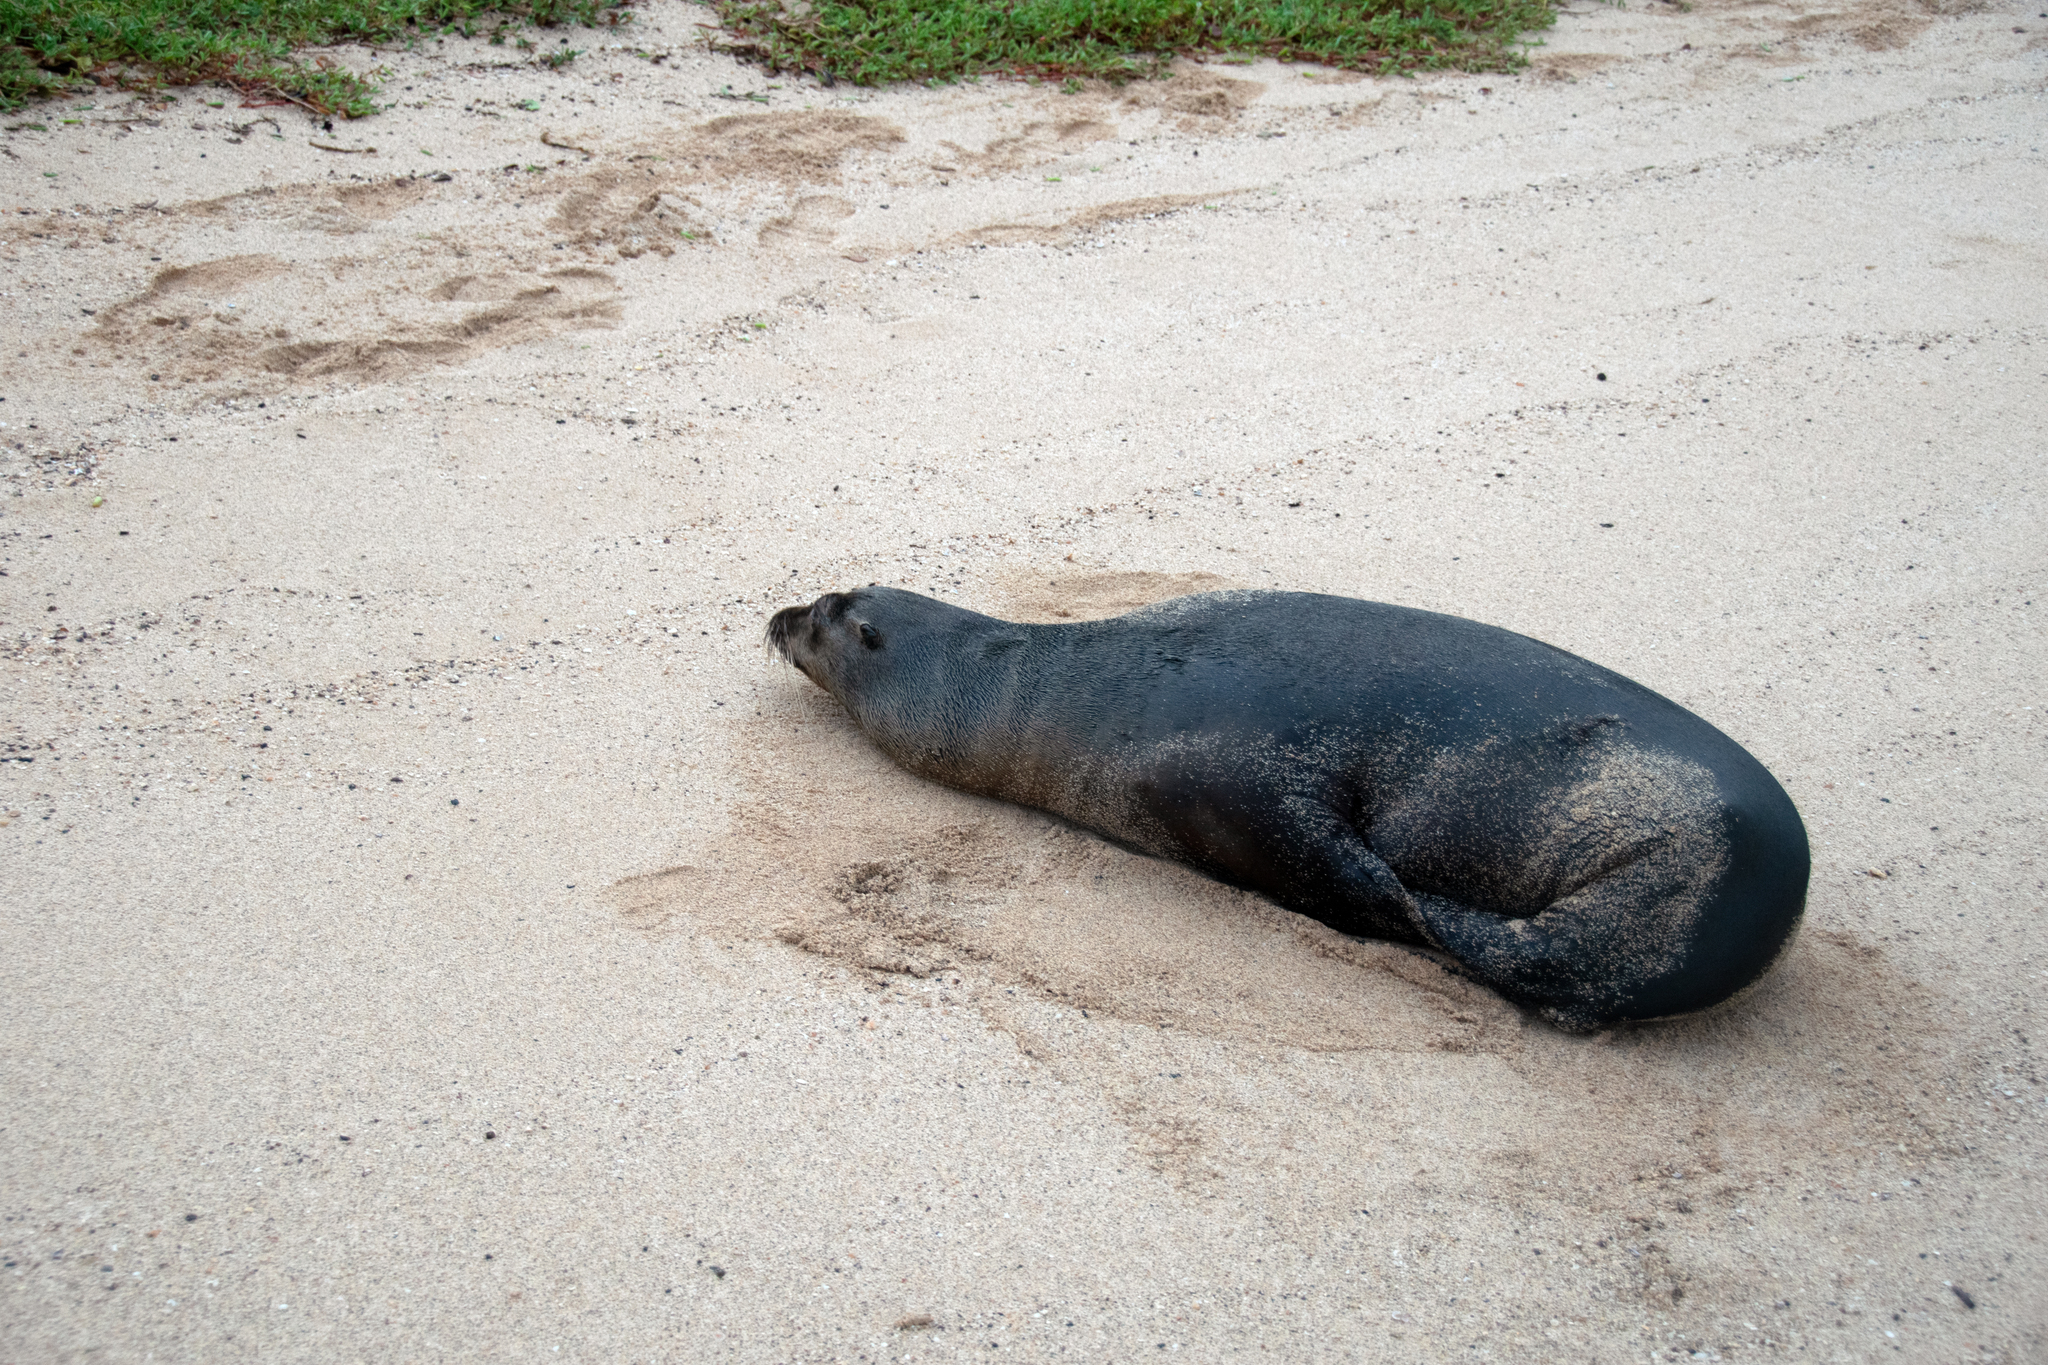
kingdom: Animalia
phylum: Chordata
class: Mammalia
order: Carnivora
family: Otariidae
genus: Zalophus
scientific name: Zalophus wollebaeki
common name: Galapagos sea lion
